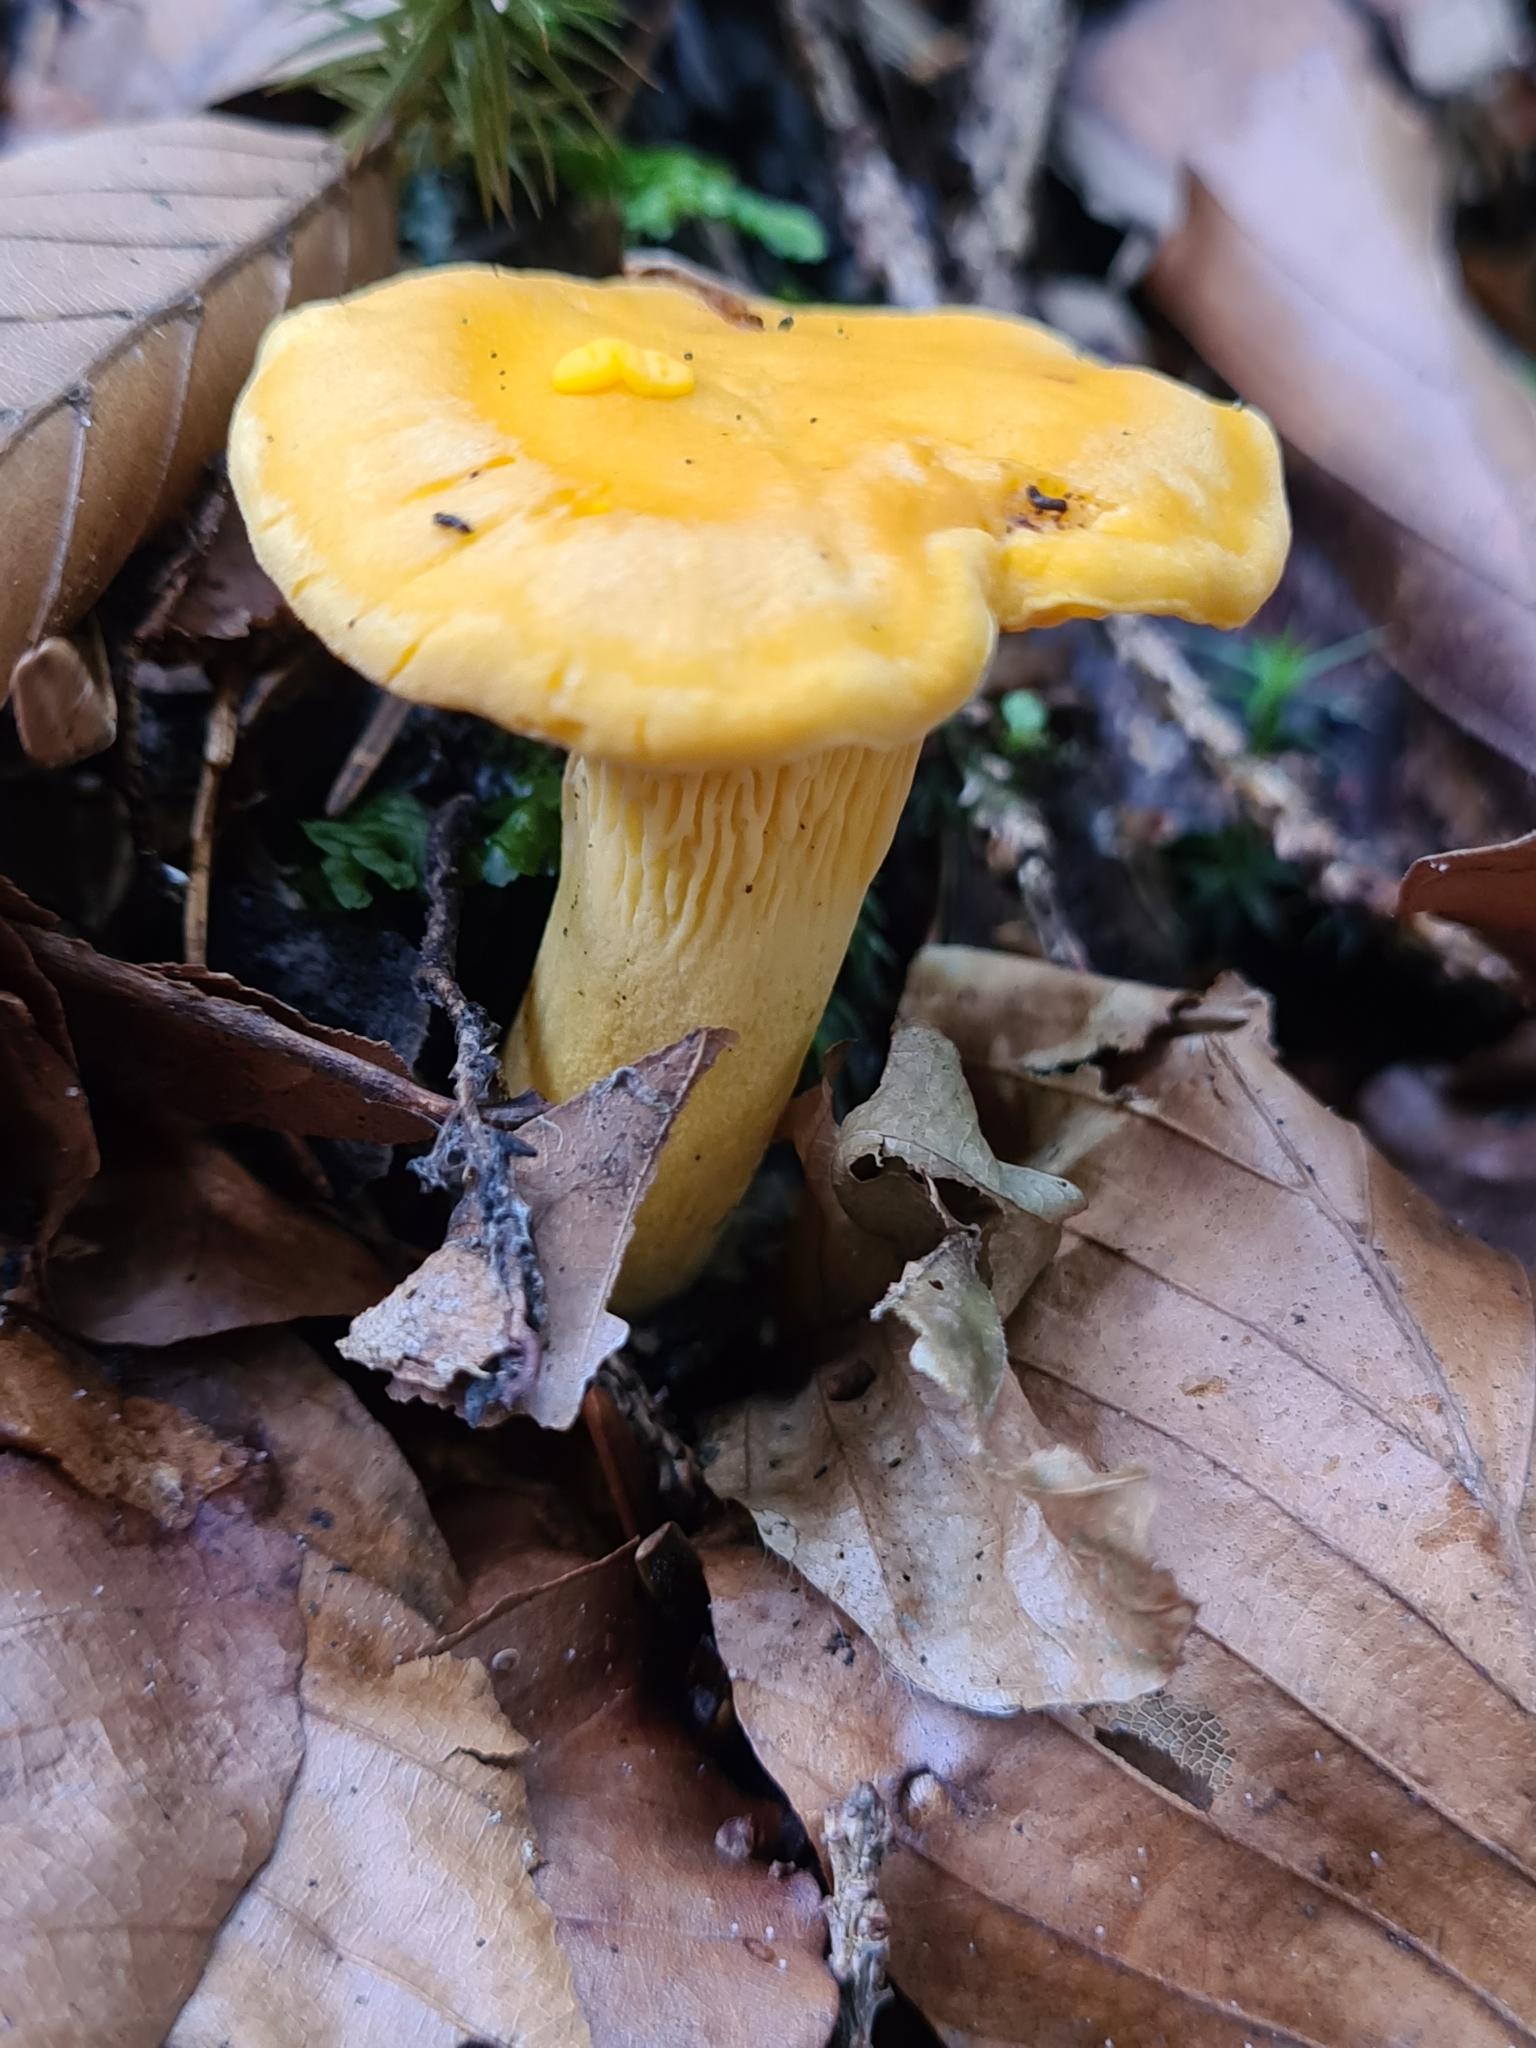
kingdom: Fungi
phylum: Basidiomycota
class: Agaricomycetes
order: Cantharellales
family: Hydnaceae
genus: Cantharellus
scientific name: Cantharellus cibarius
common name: Chanterelle
